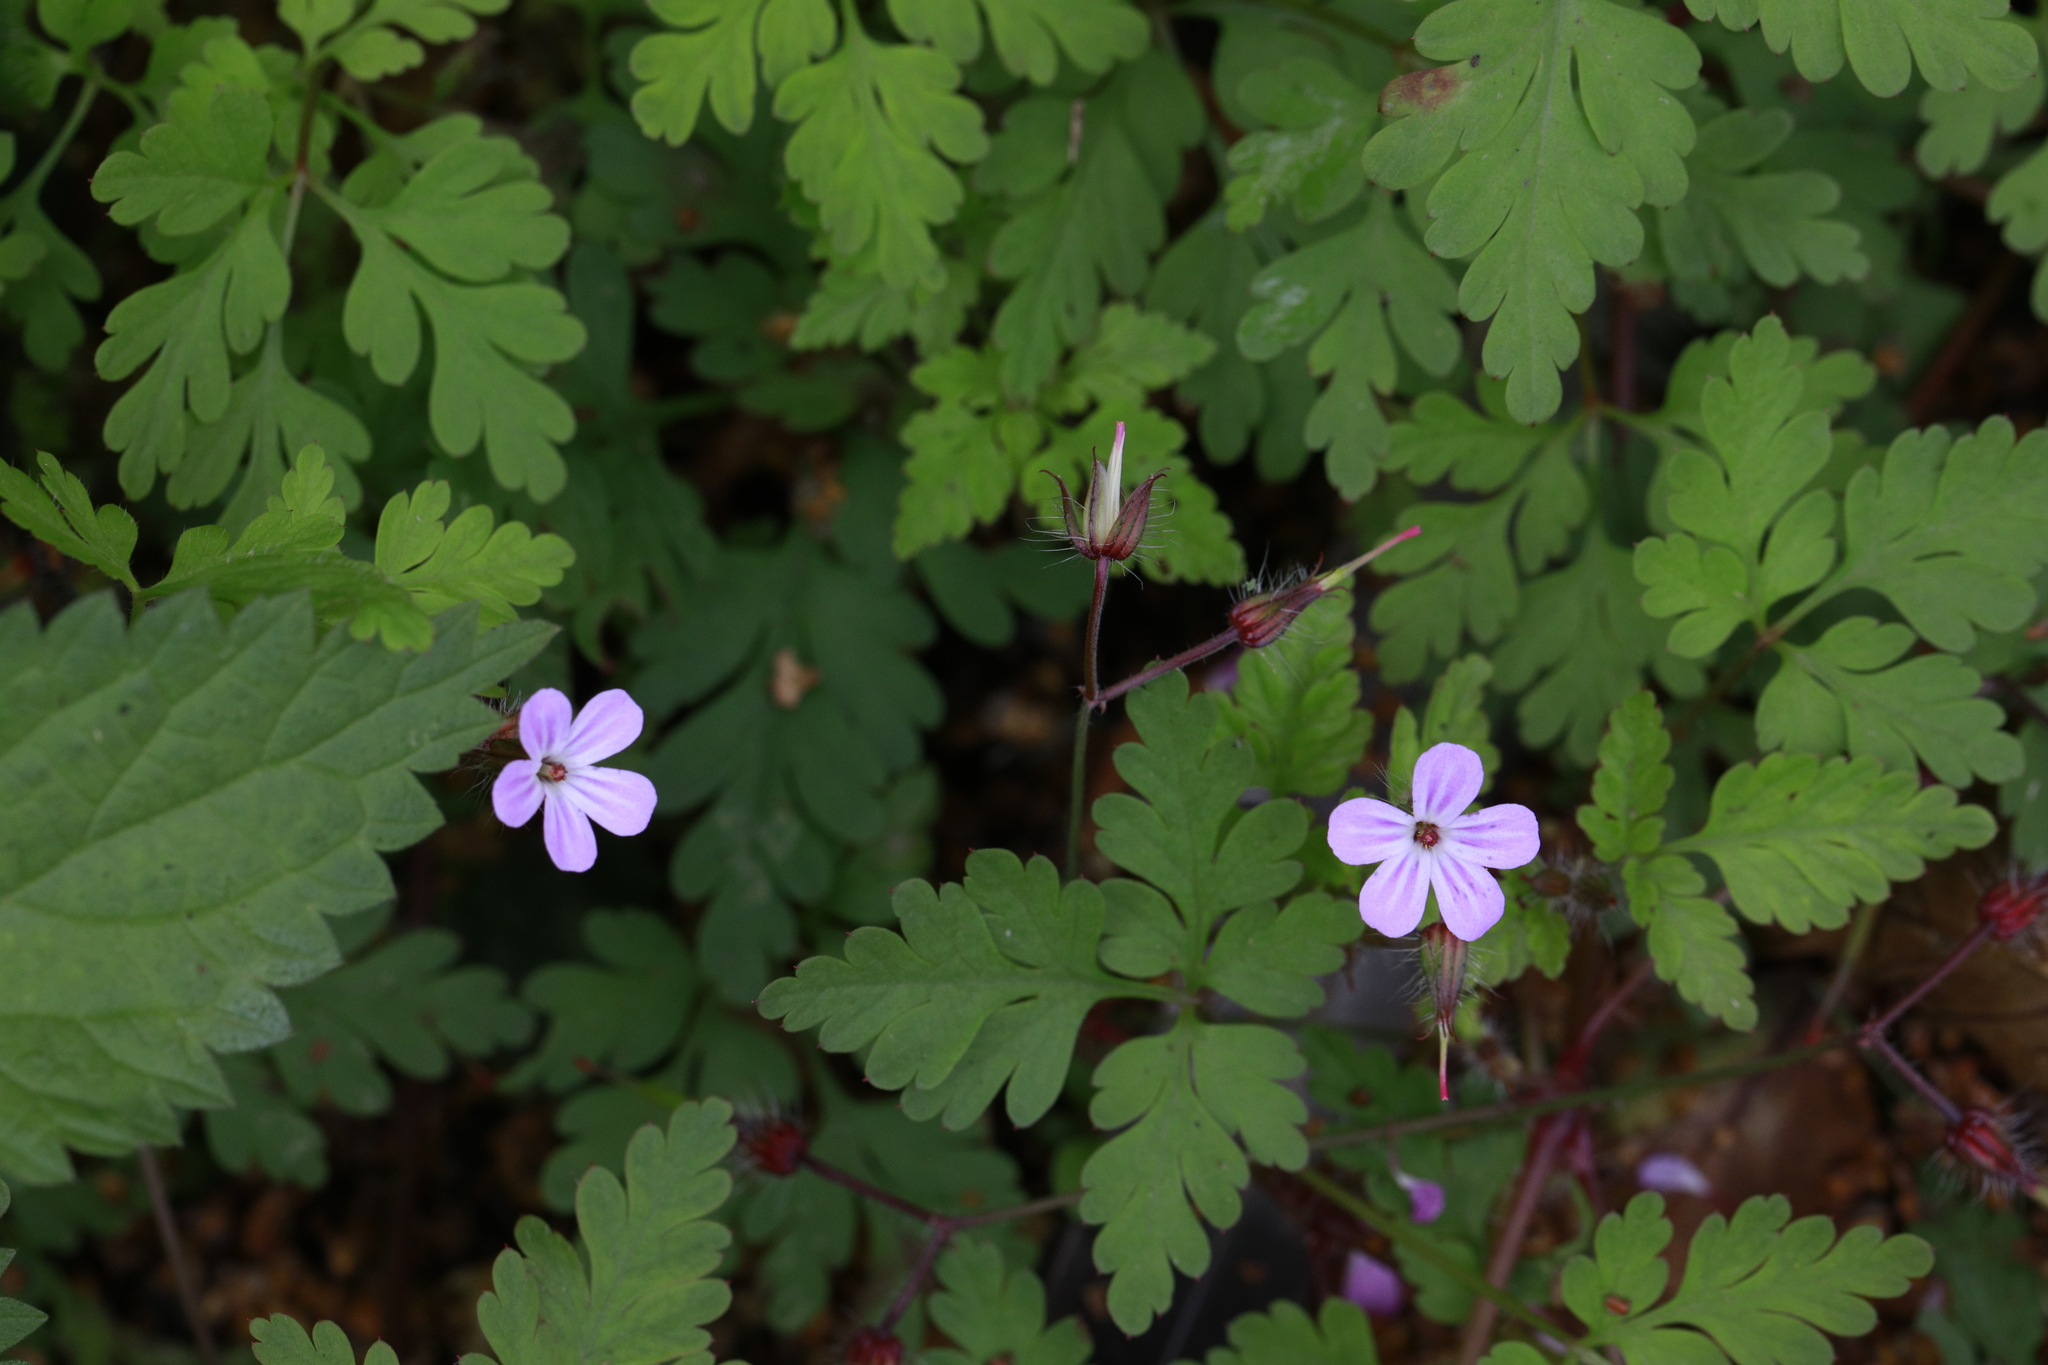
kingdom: Plantae
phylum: Tracheophyta
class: Magnoliopsida
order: Geraniales
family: Geraniaceae
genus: Geranium
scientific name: Geranium robertianum
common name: Herb-robert
